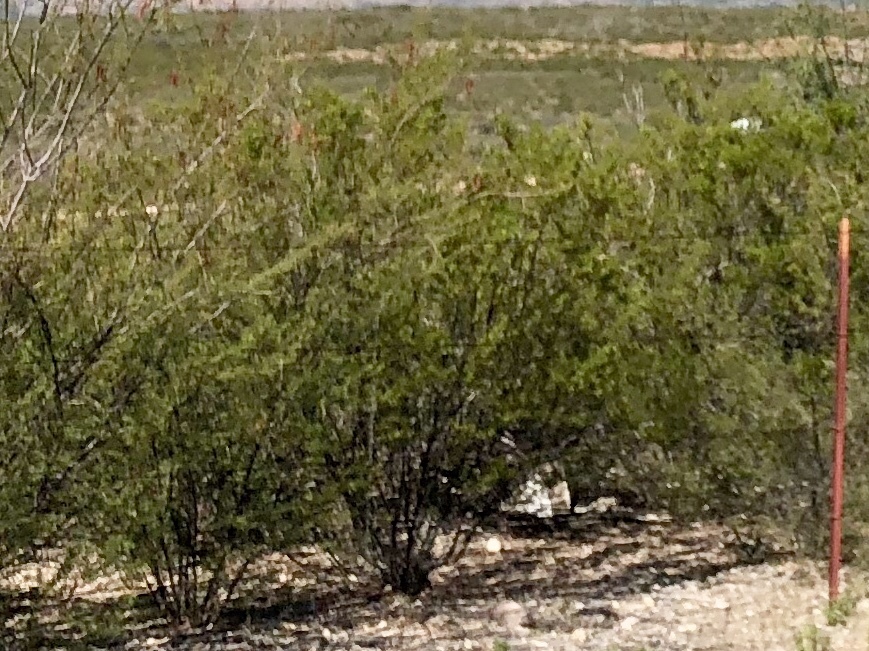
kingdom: Plantae
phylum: Tracheophyta
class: Magnoliopsida
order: Zygophyllales
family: Zygophyllaceae
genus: Larrea
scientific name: Larrea tridentata
